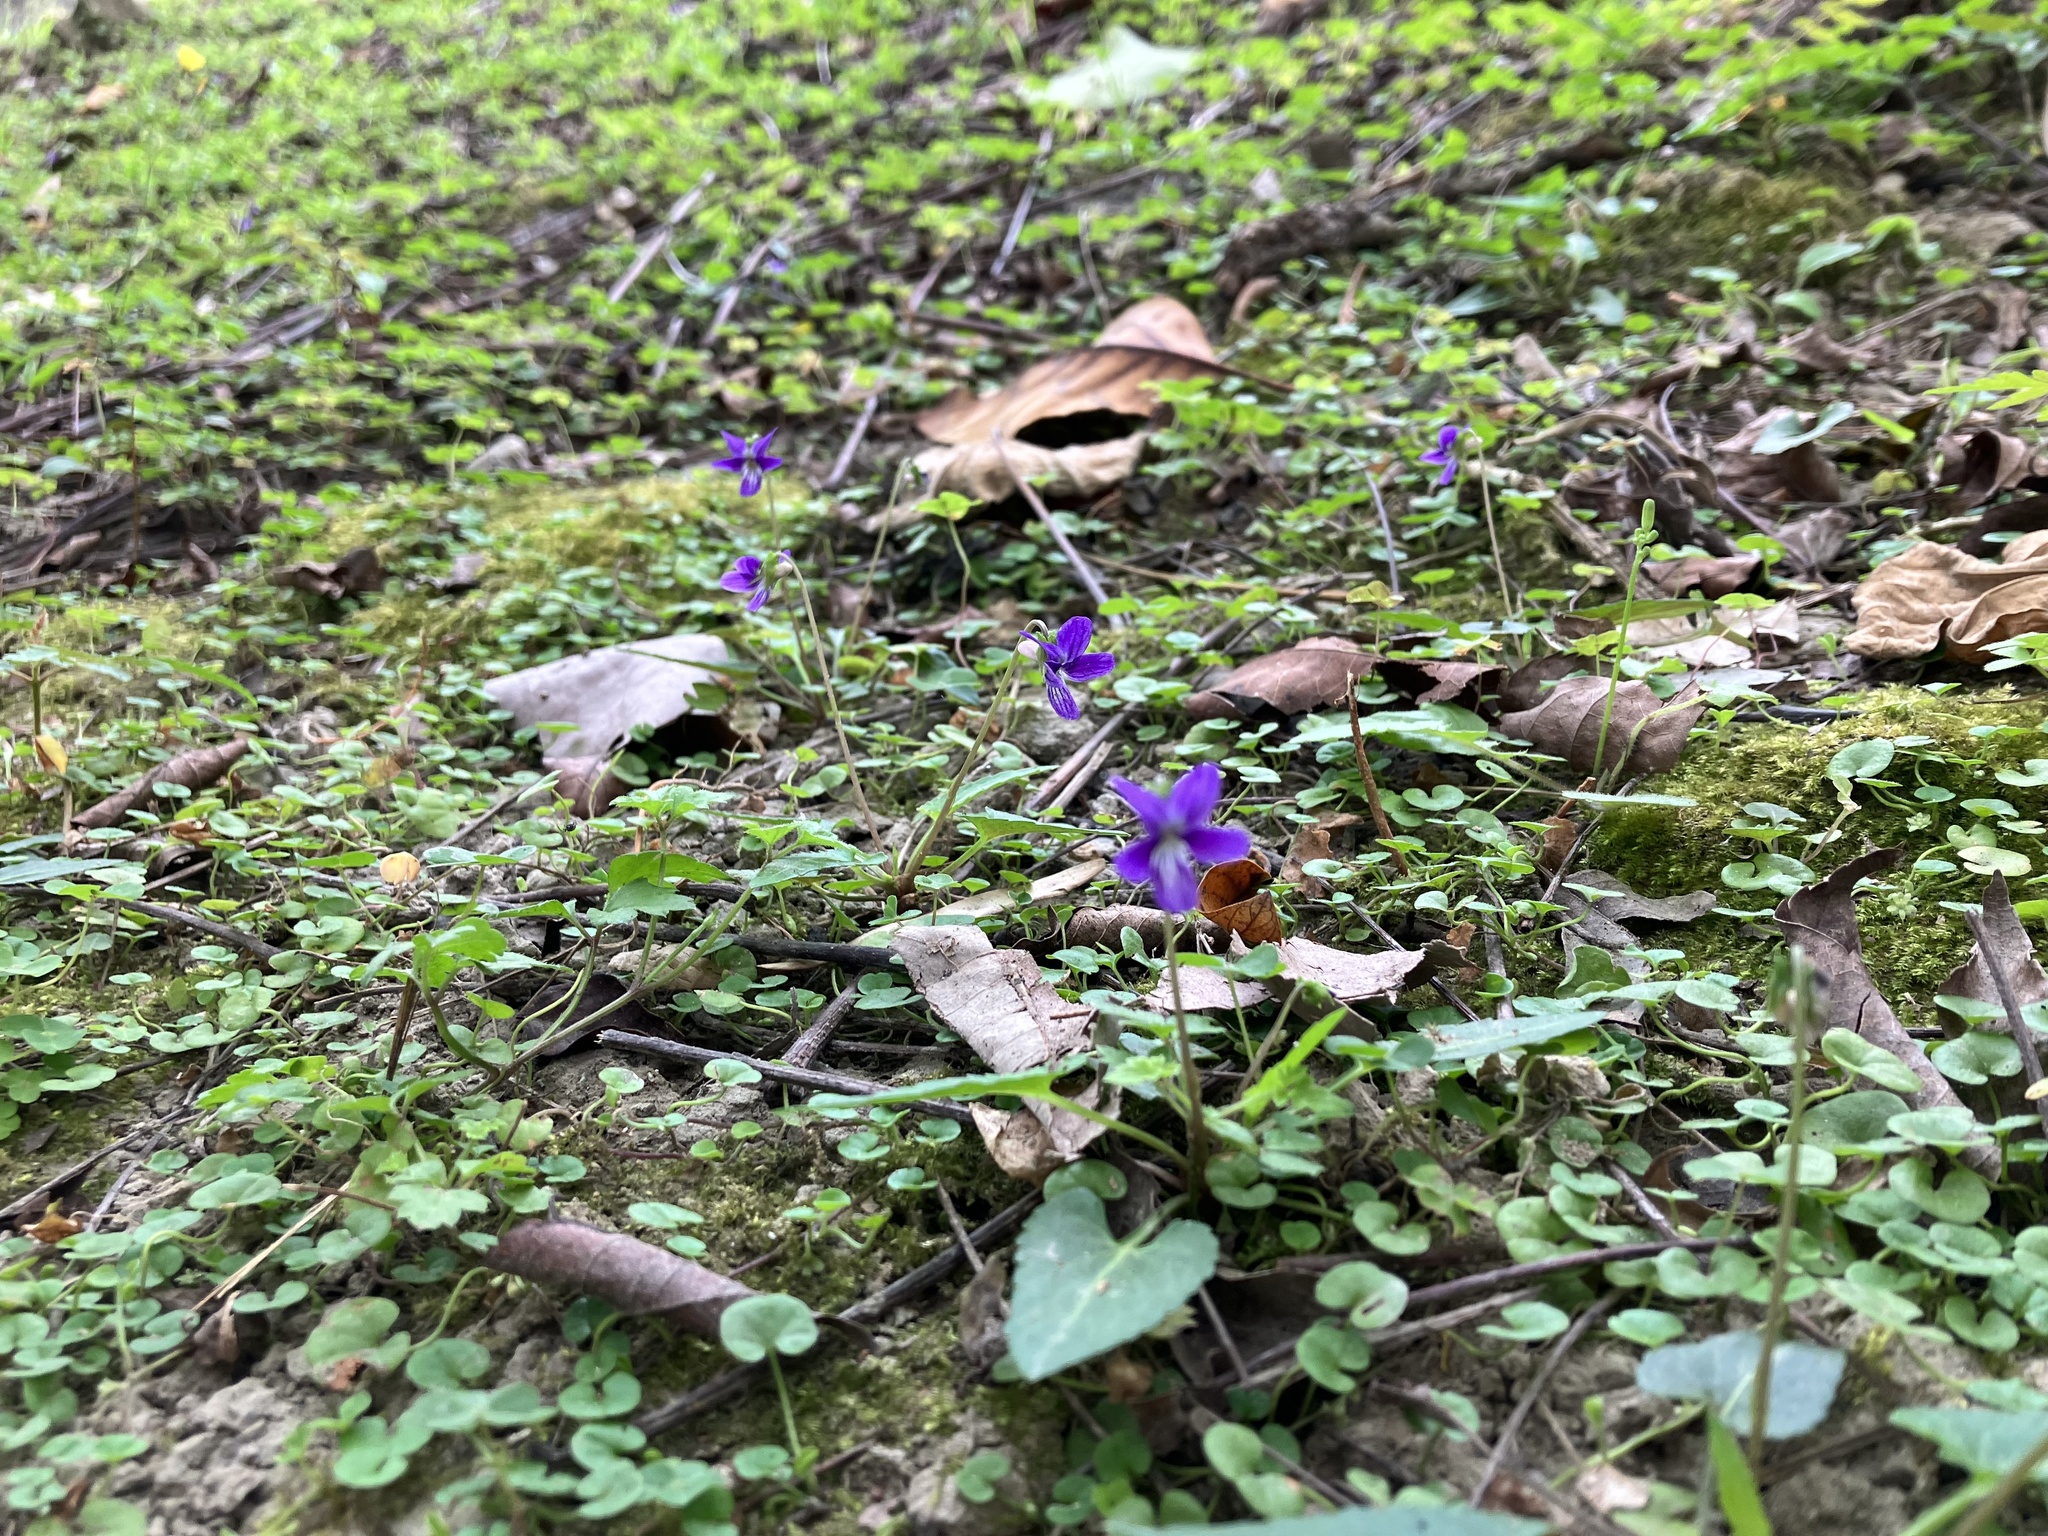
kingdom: Plantae
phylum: Tracheophyta
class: Magnoliopsida
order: Malpighiales
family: Violaceae
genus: Viola
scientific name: Viola inconspicua
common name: Long sepal violet
